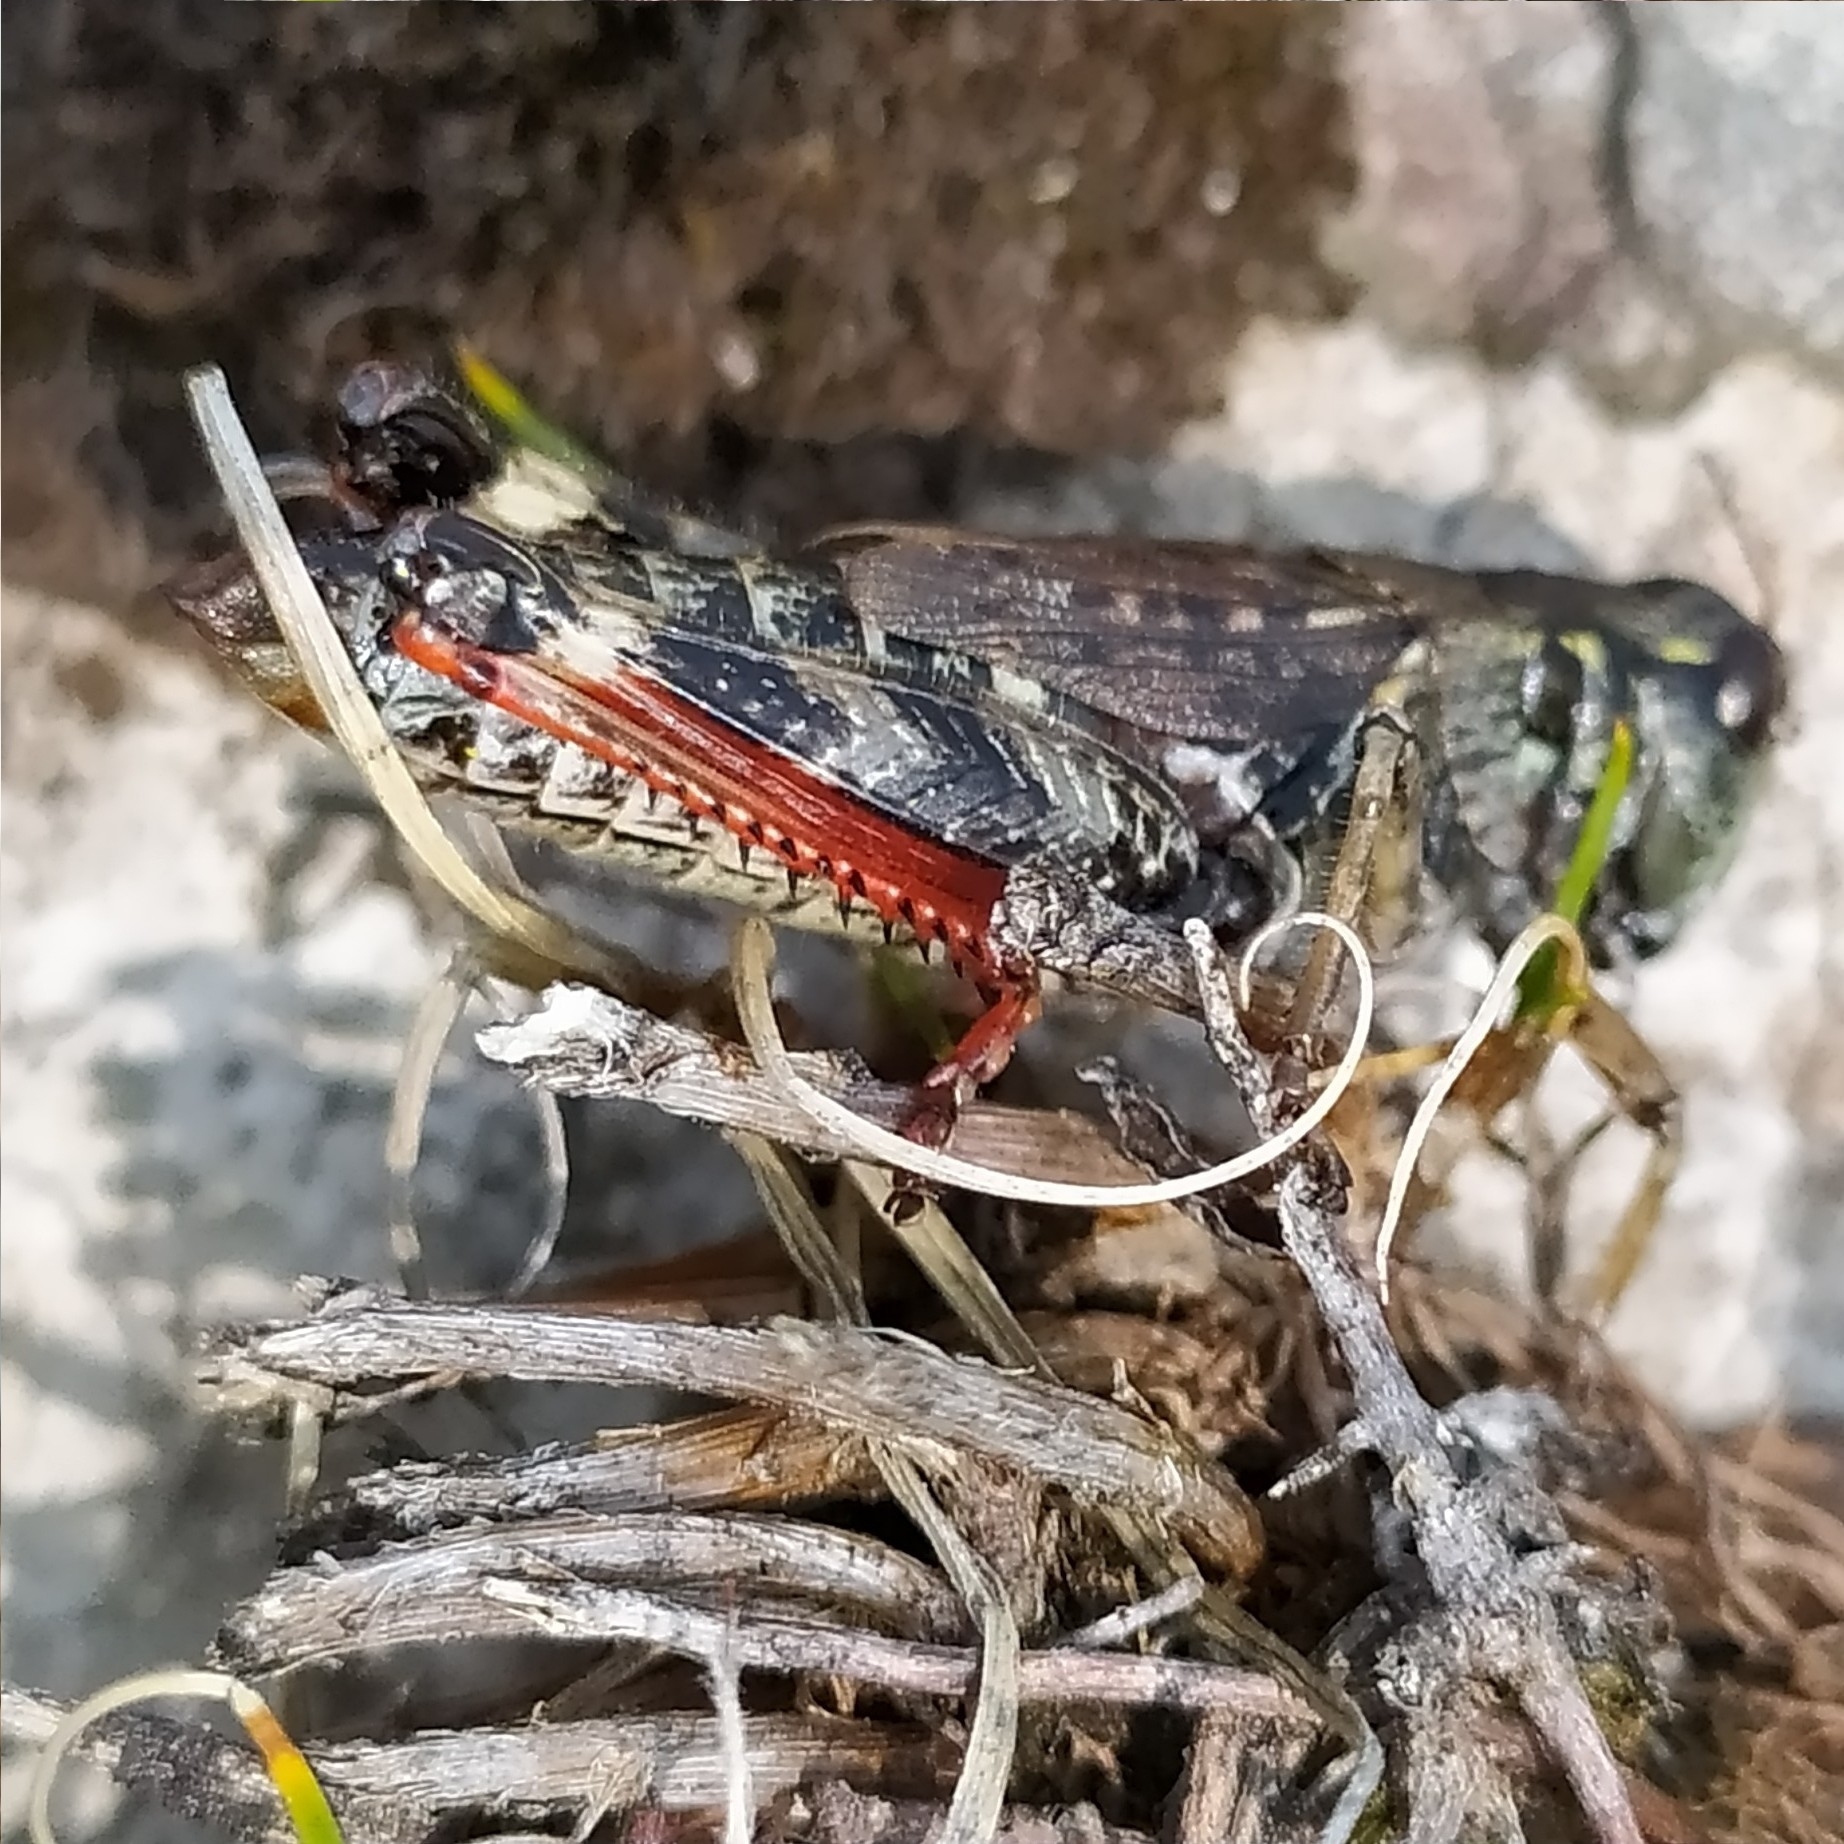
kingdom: Animalia
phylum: Arthropoda
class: Insecta
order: Orthoptera
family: Acrididae
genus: Bohemanella
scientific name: Bohemanella frigida
